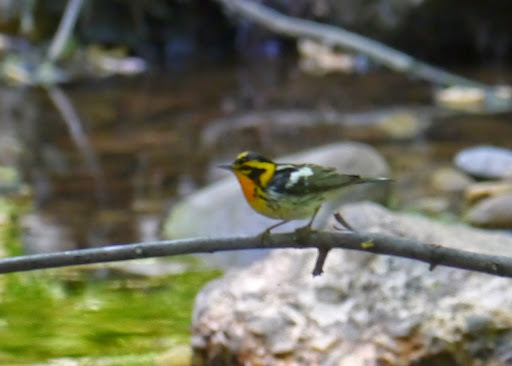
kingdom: Animalia
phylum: Chordata
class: Aves
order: Passeriformes
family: Parulidae
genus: Setophaga
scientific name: Setophaga fusca
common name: Blackburnian warbler
